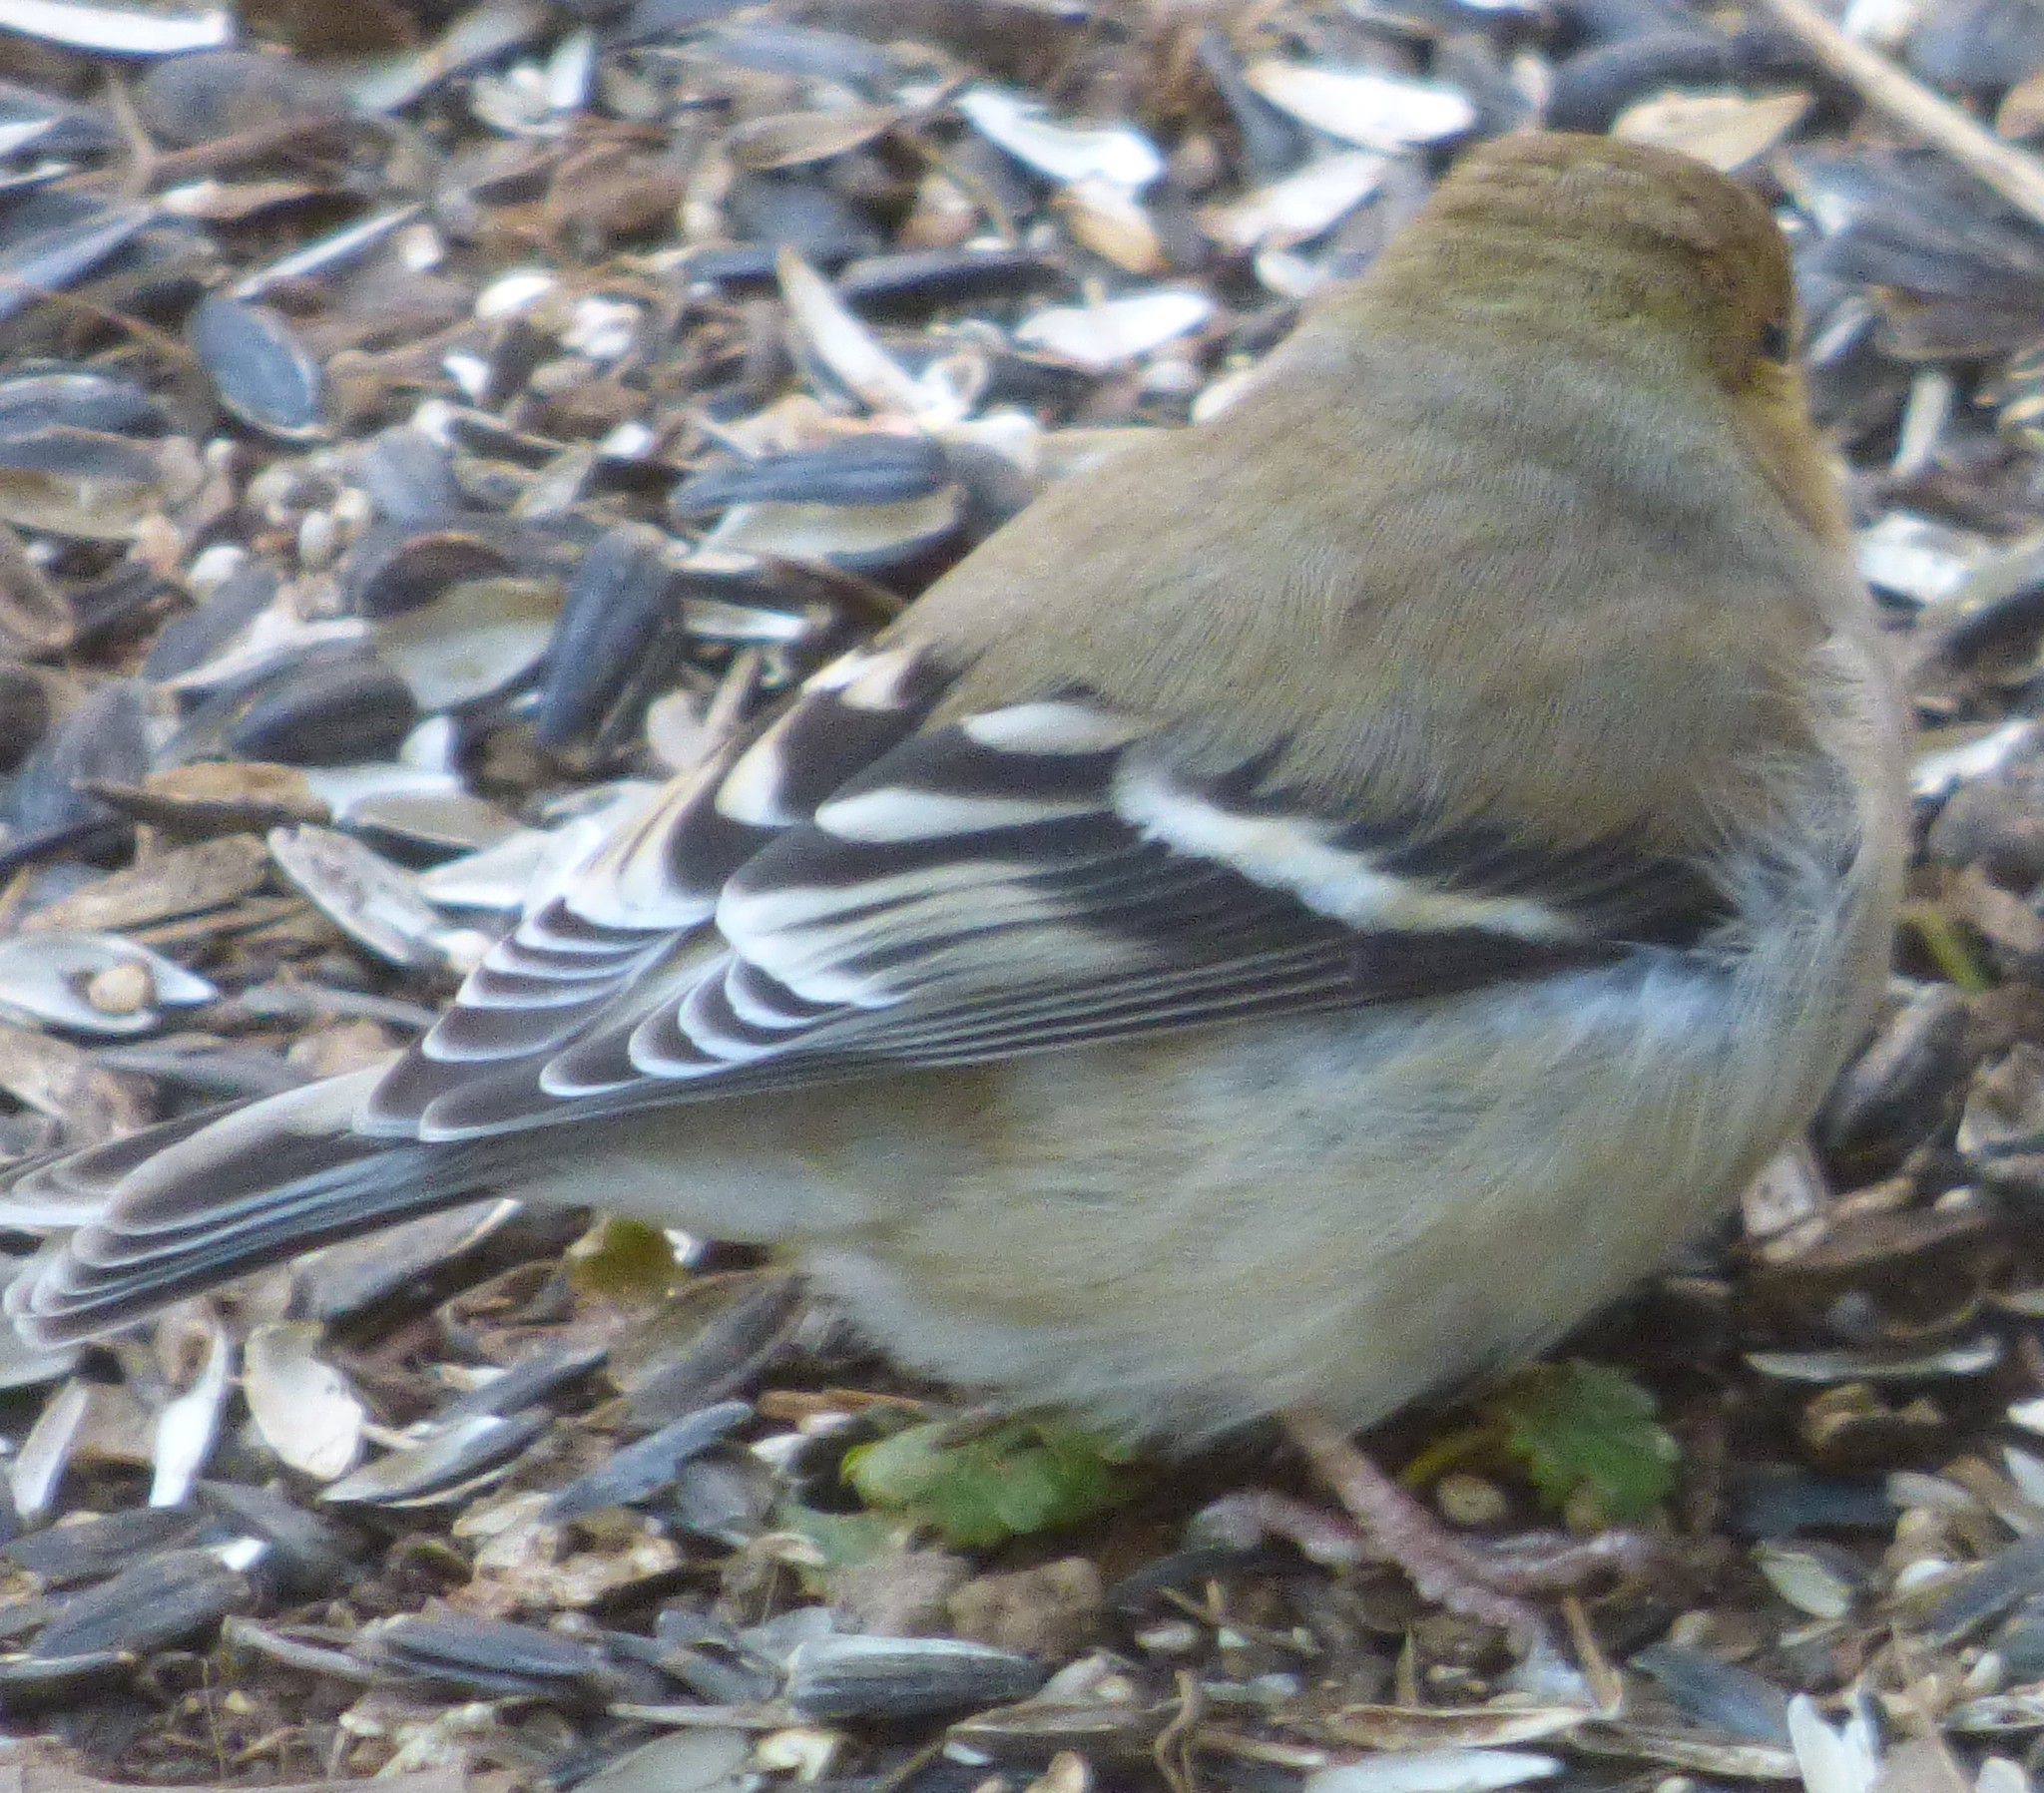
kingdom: Animalia
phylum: Chordata
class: Aves
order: Passeriformes
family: Fringillidae
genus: Spinus
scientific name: Spinus tristis
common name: American goldfinch
